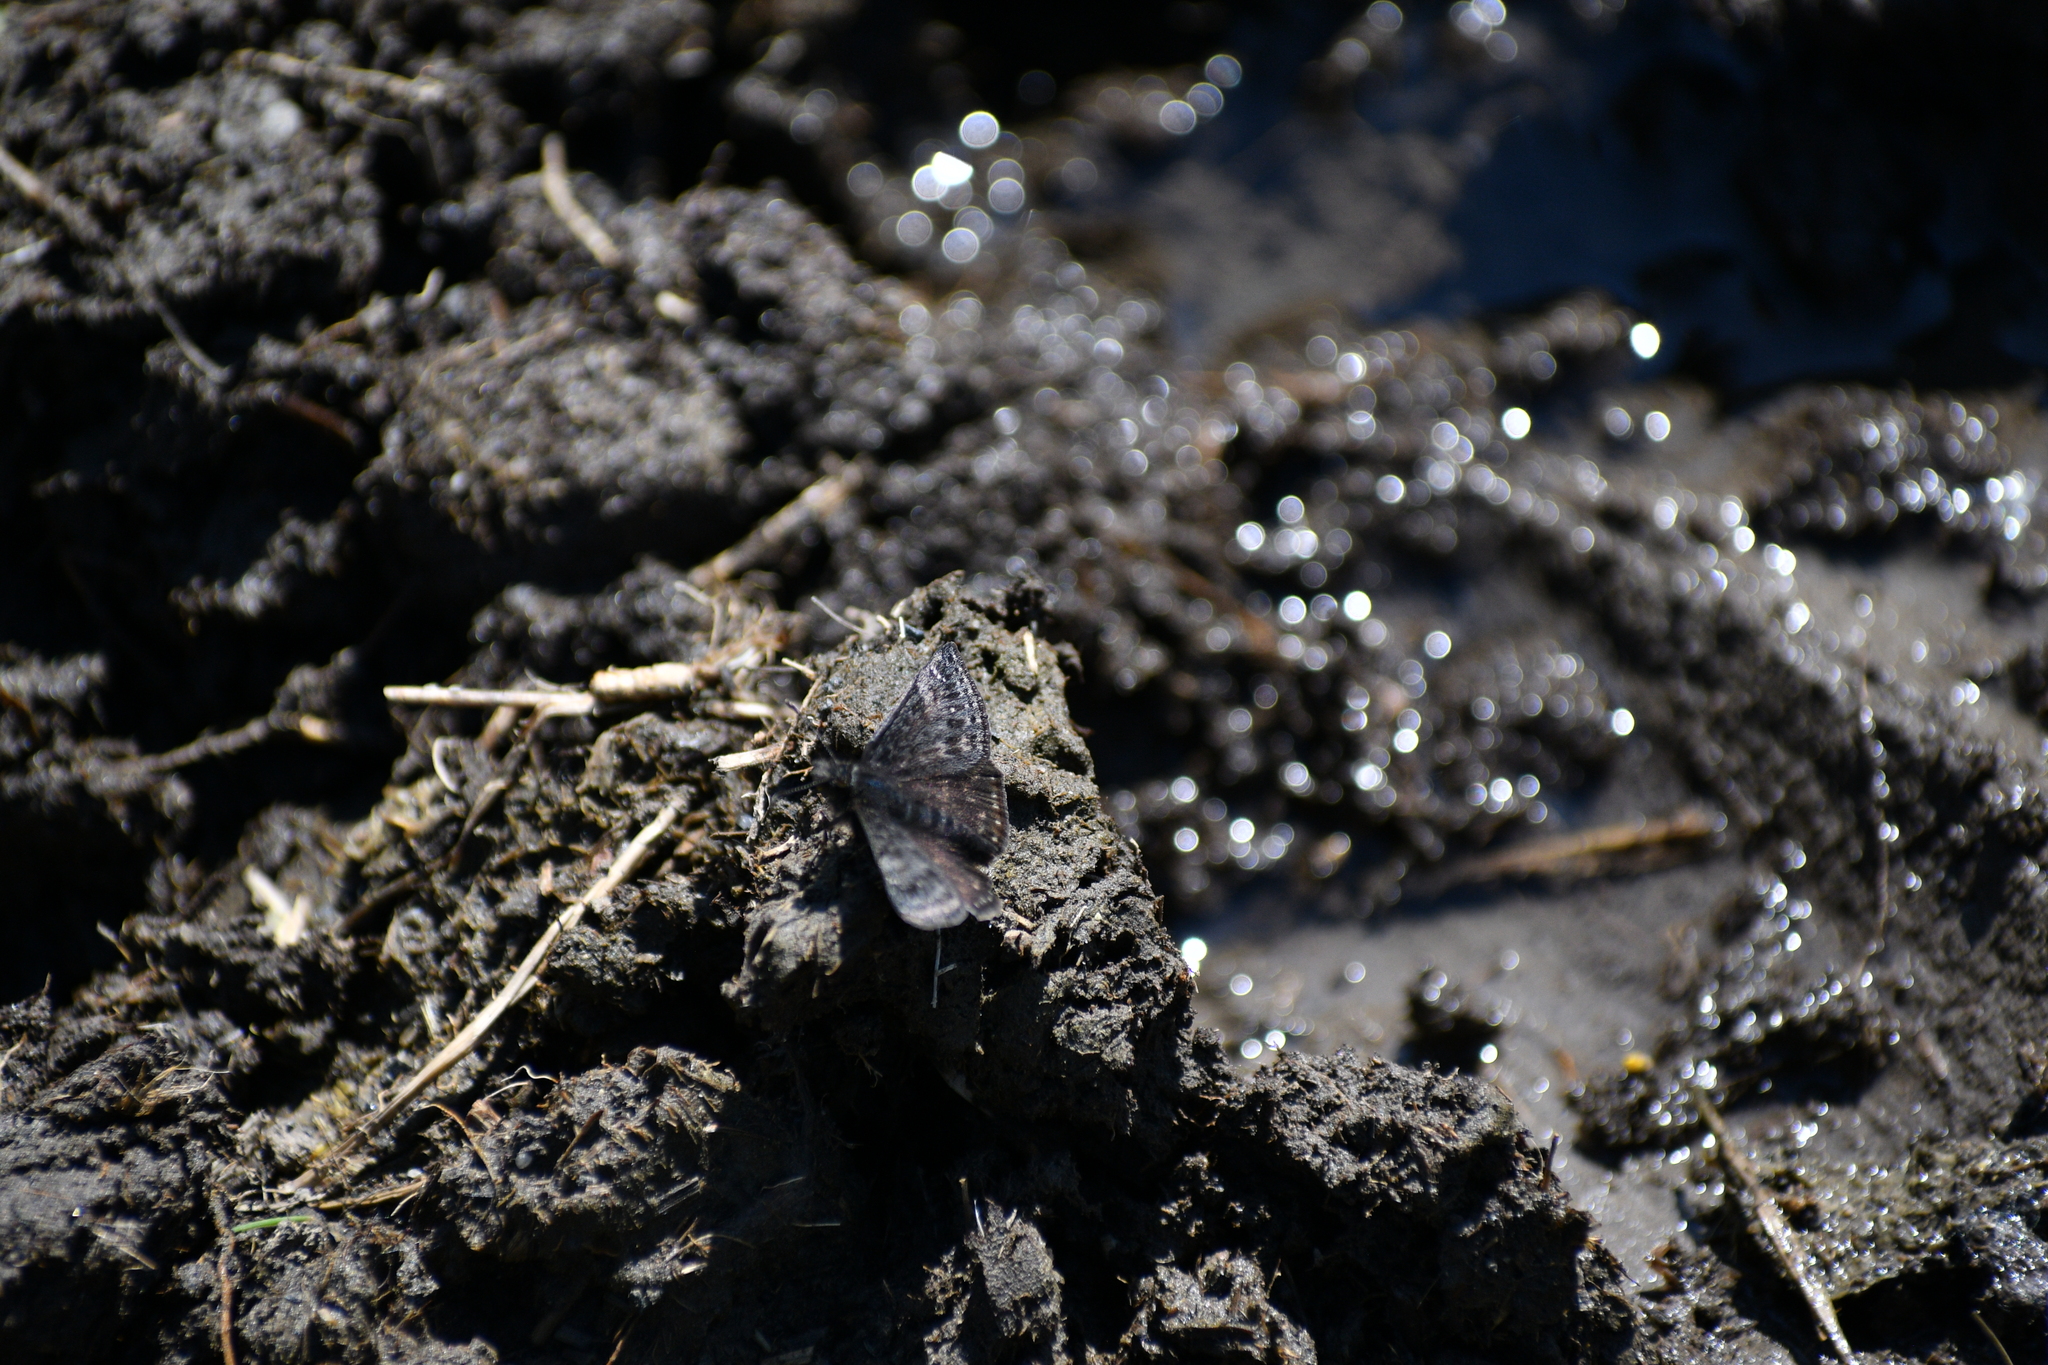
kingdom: Animalia
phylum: Arthropoda
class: Insecta
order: Lepidoptera
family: Hesperiidae
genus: Erynnis
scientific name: Erynnis persius
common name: Persius duskywing
